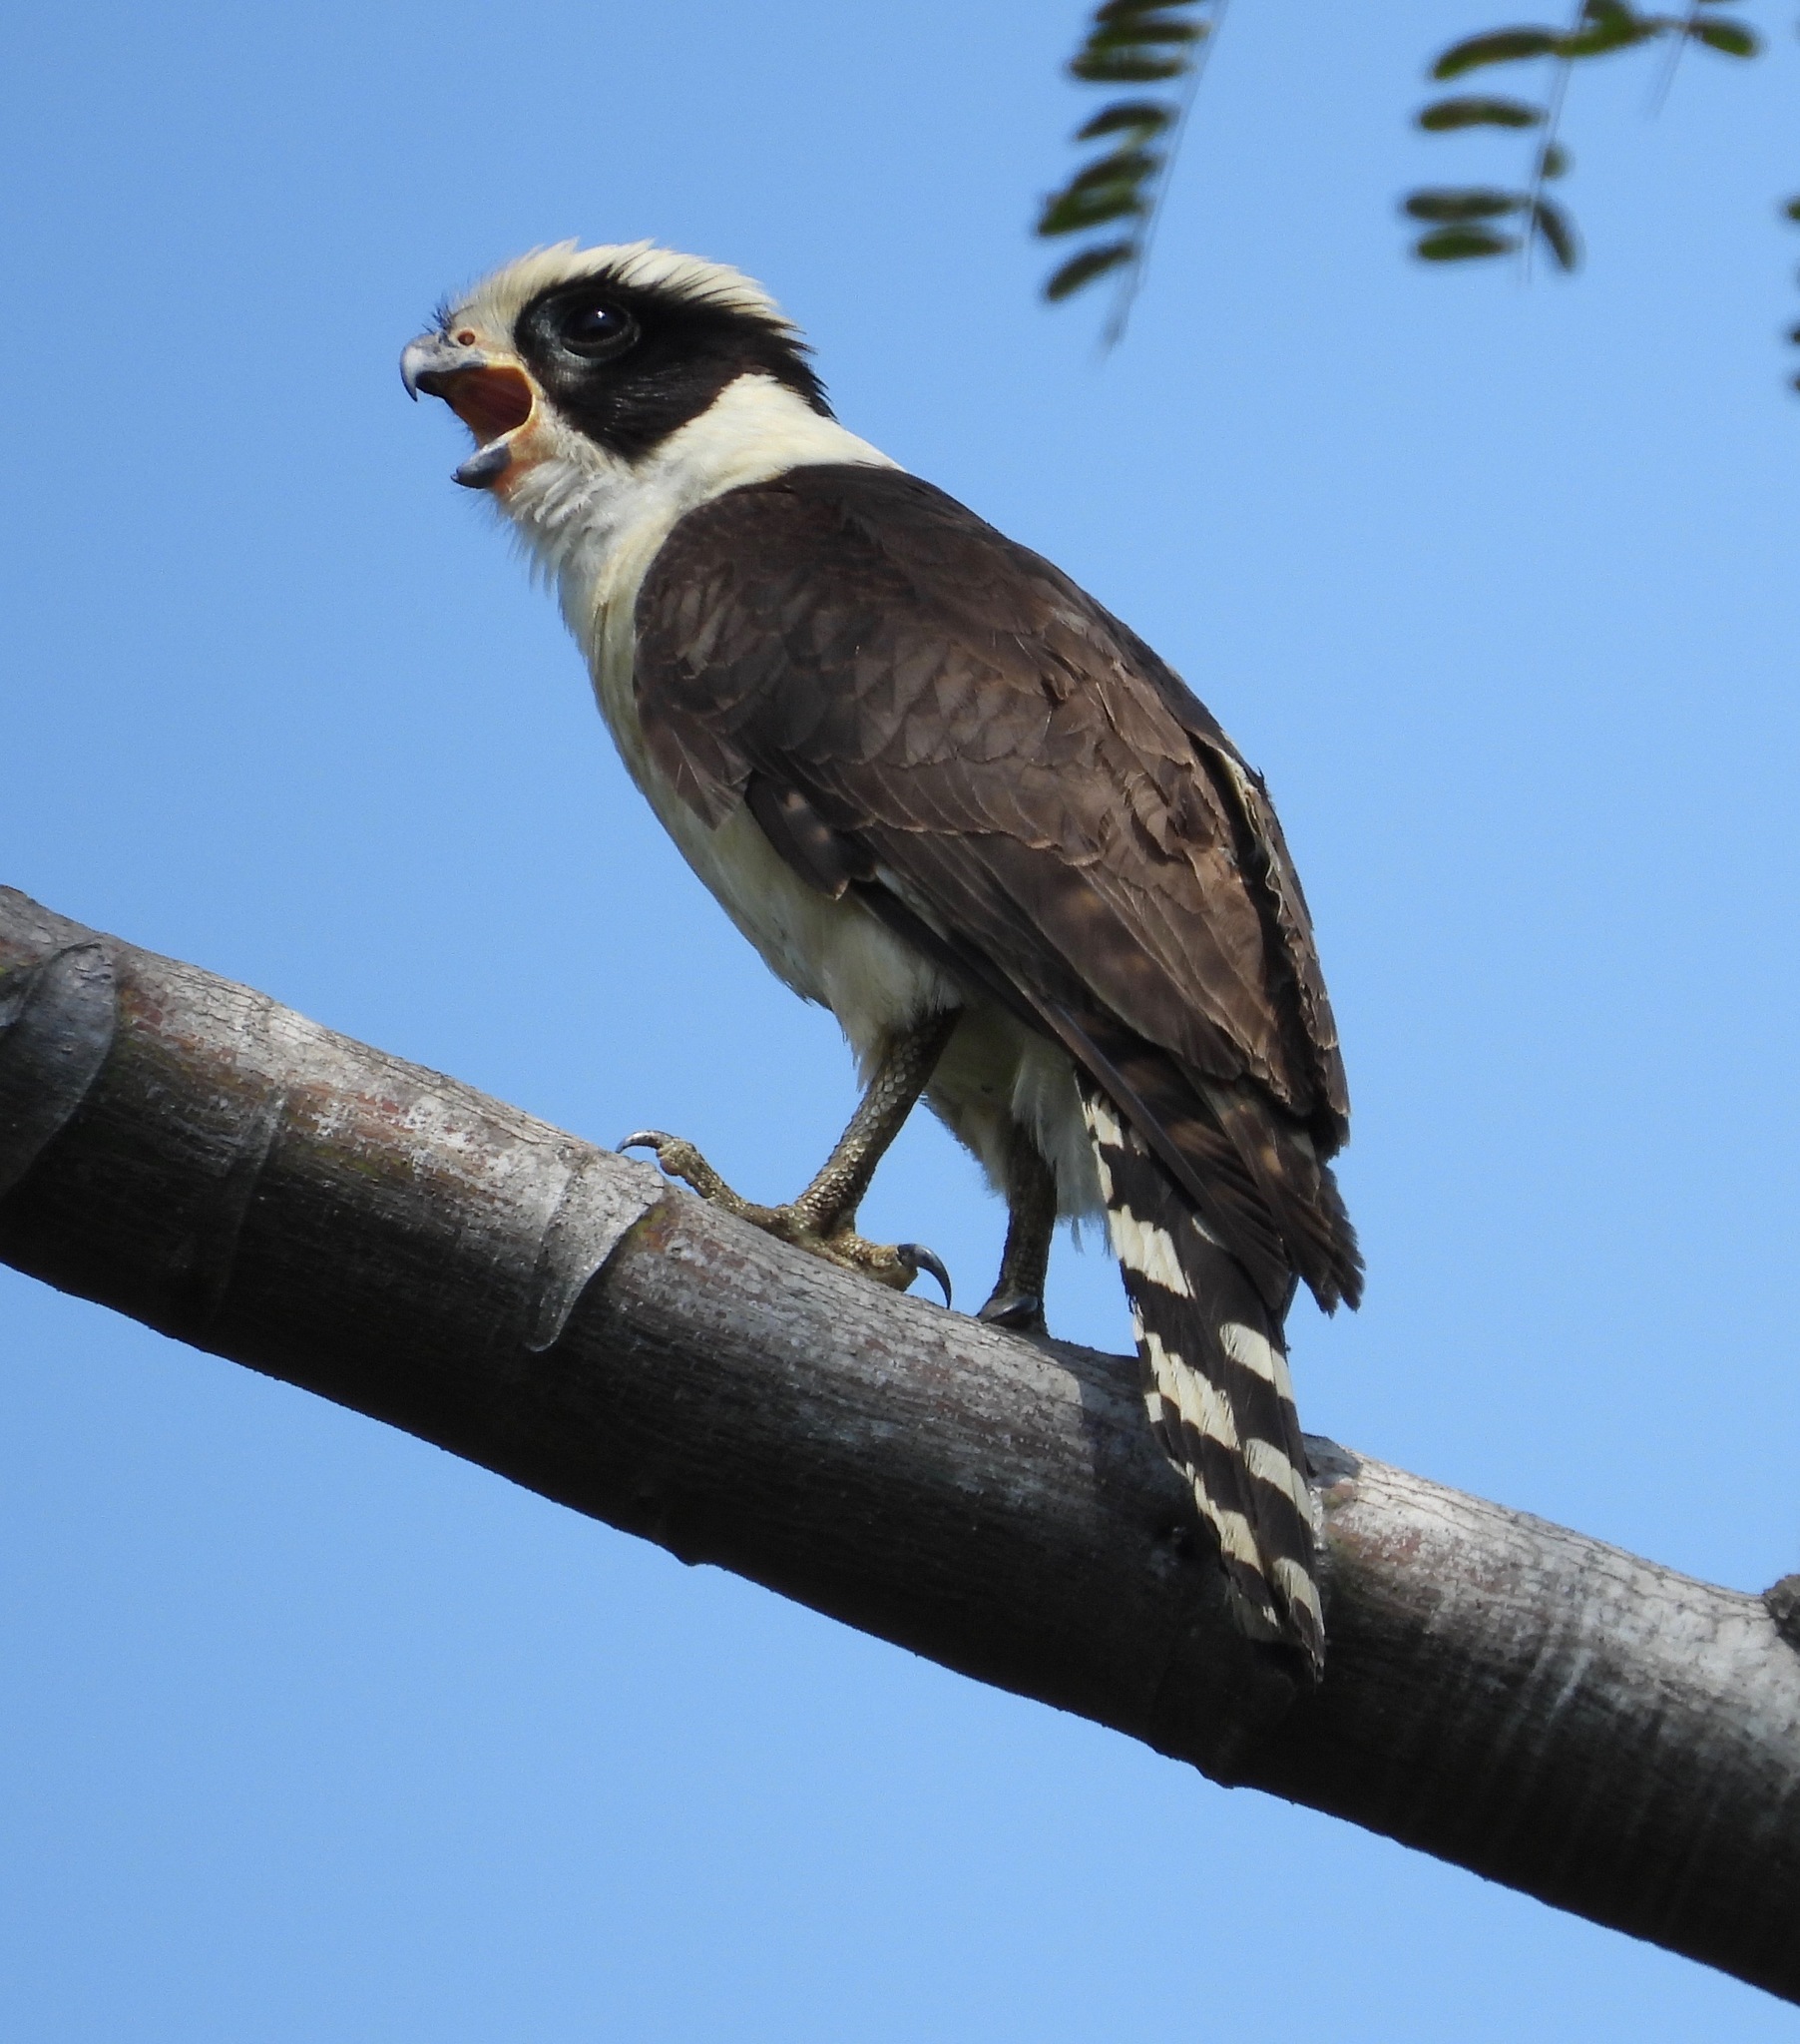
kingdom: Animalia
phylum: Chordata
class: Aves
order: Falconiformes
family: Falconidae
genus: Herpetotheres
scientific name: Herpetotheres cachinnans
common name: Laughing falcon
